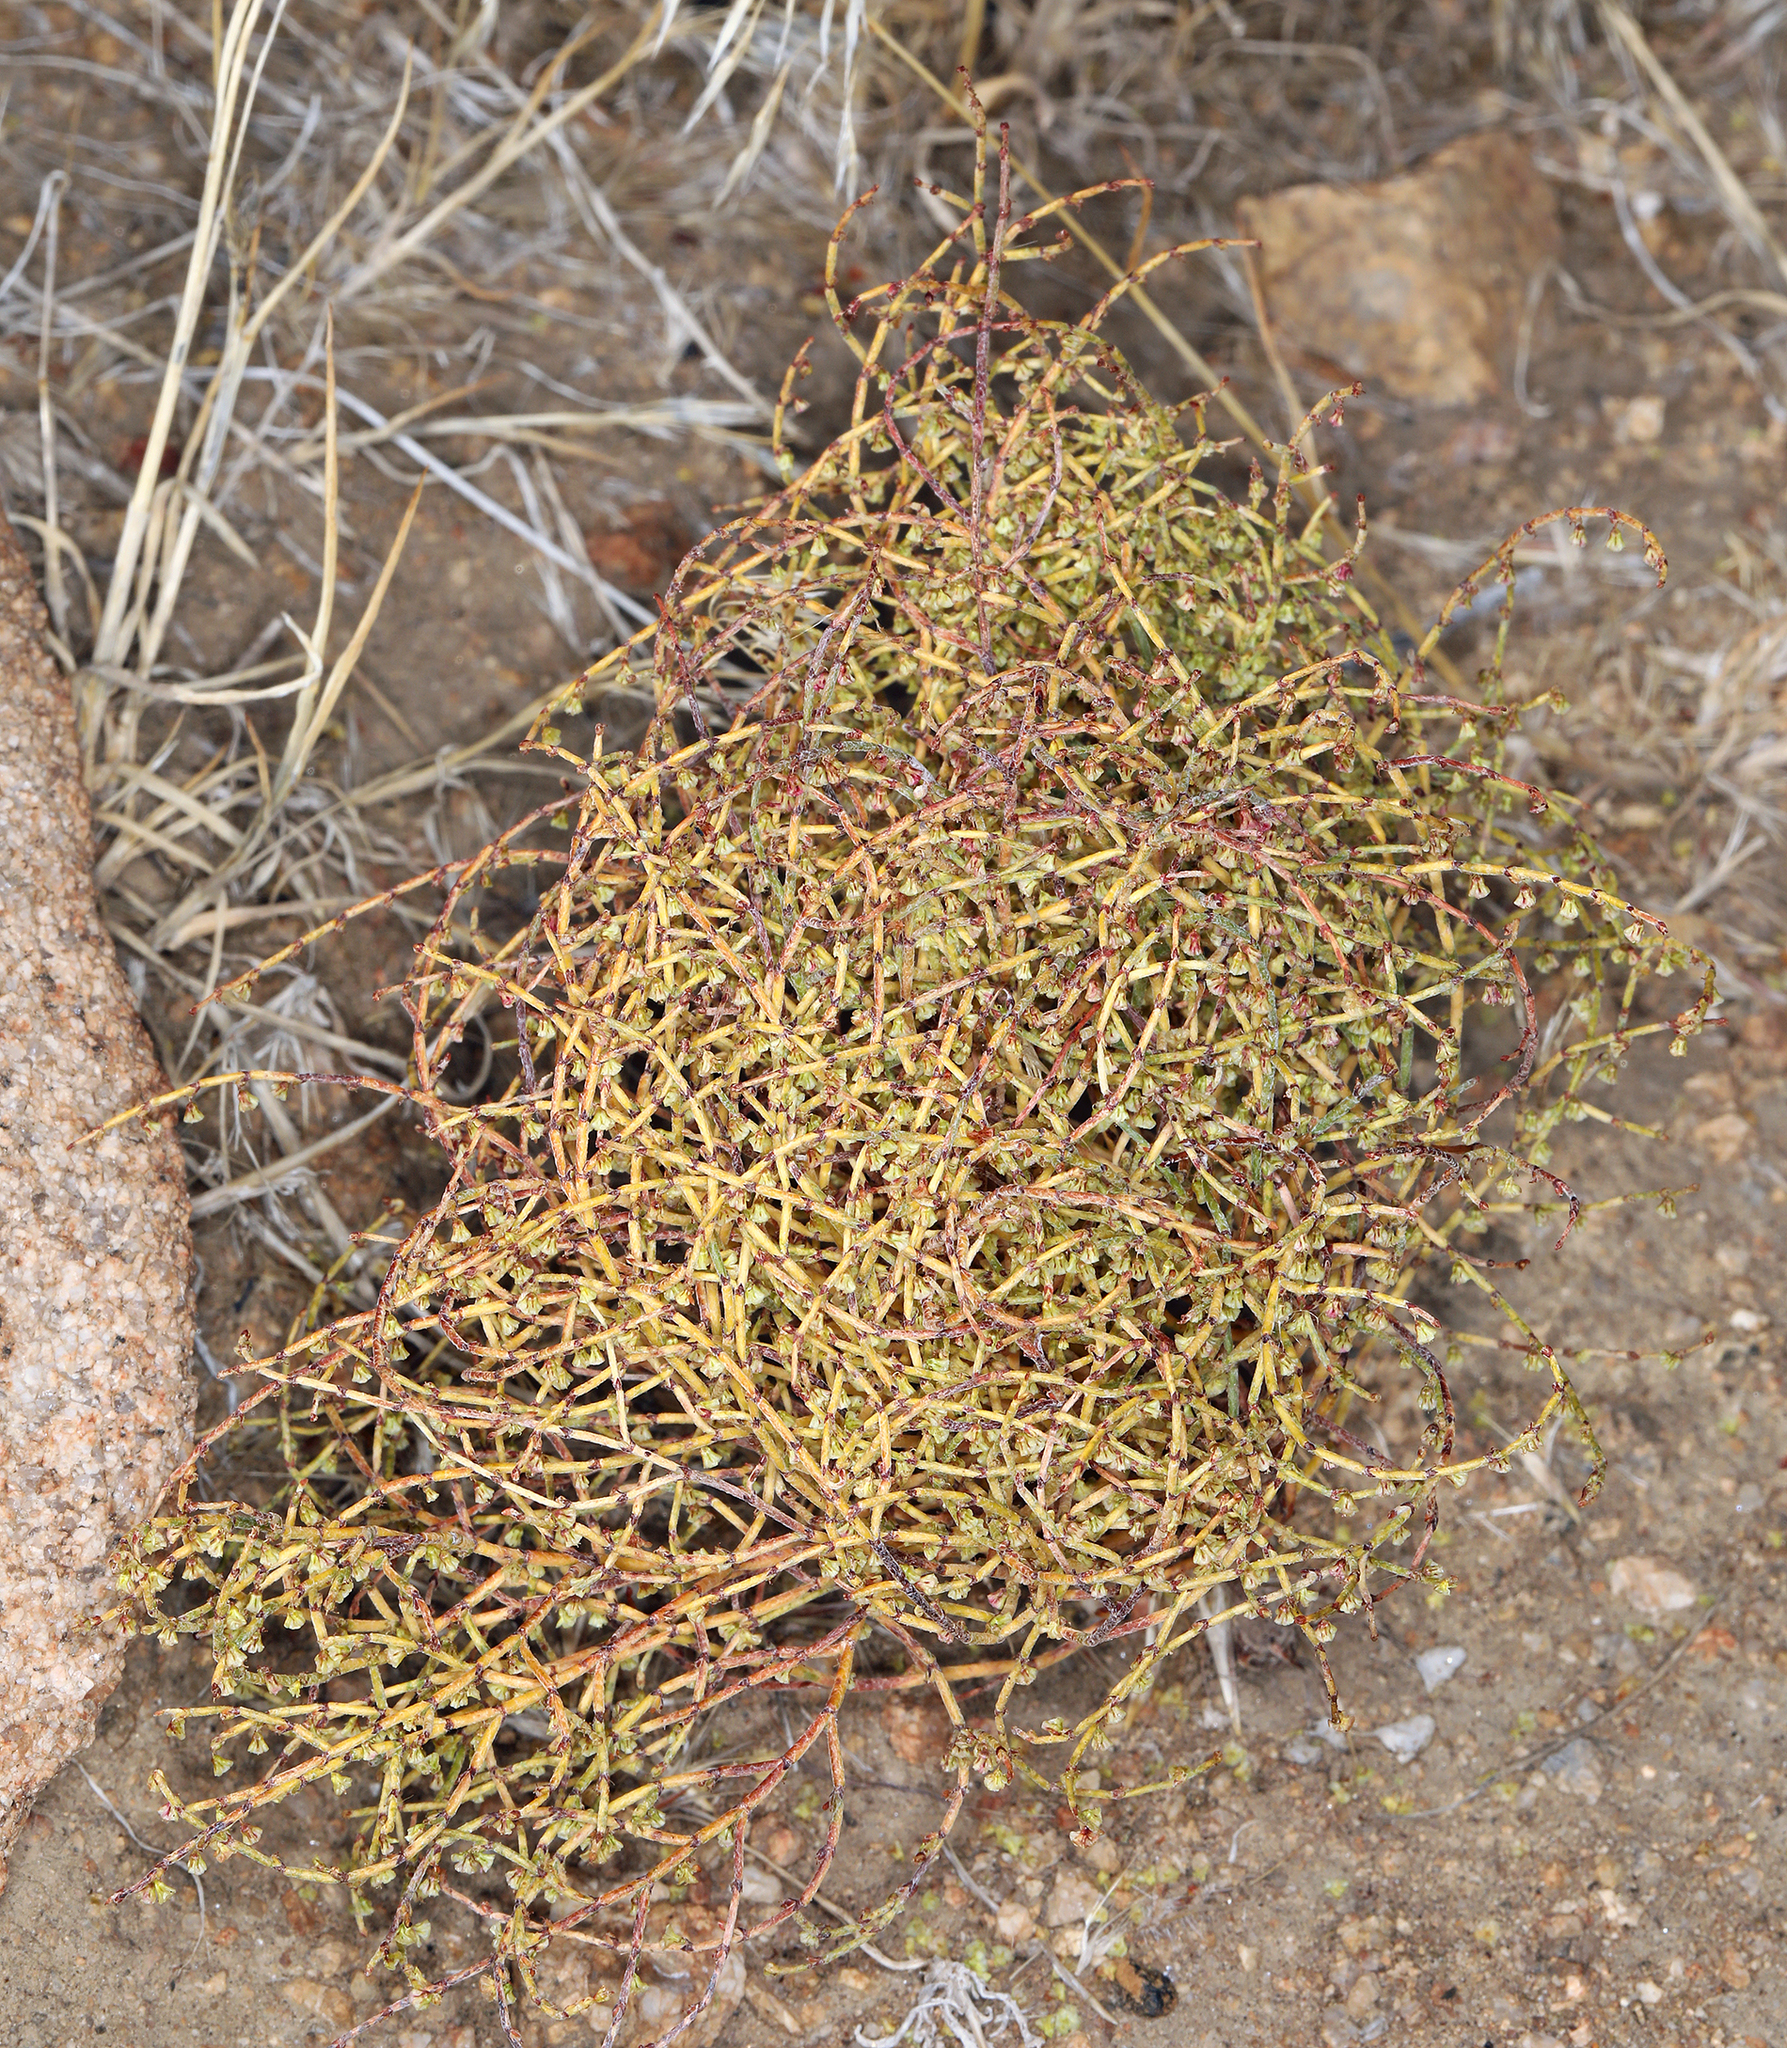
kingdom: Plantae
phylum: Tracheophyta
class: Magnoliopsida
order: Caryophyllales
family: Polygonaceae
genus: Eriogonum
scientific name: Eriogonum nidularium
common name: Bird's-nest wild buckwheat
